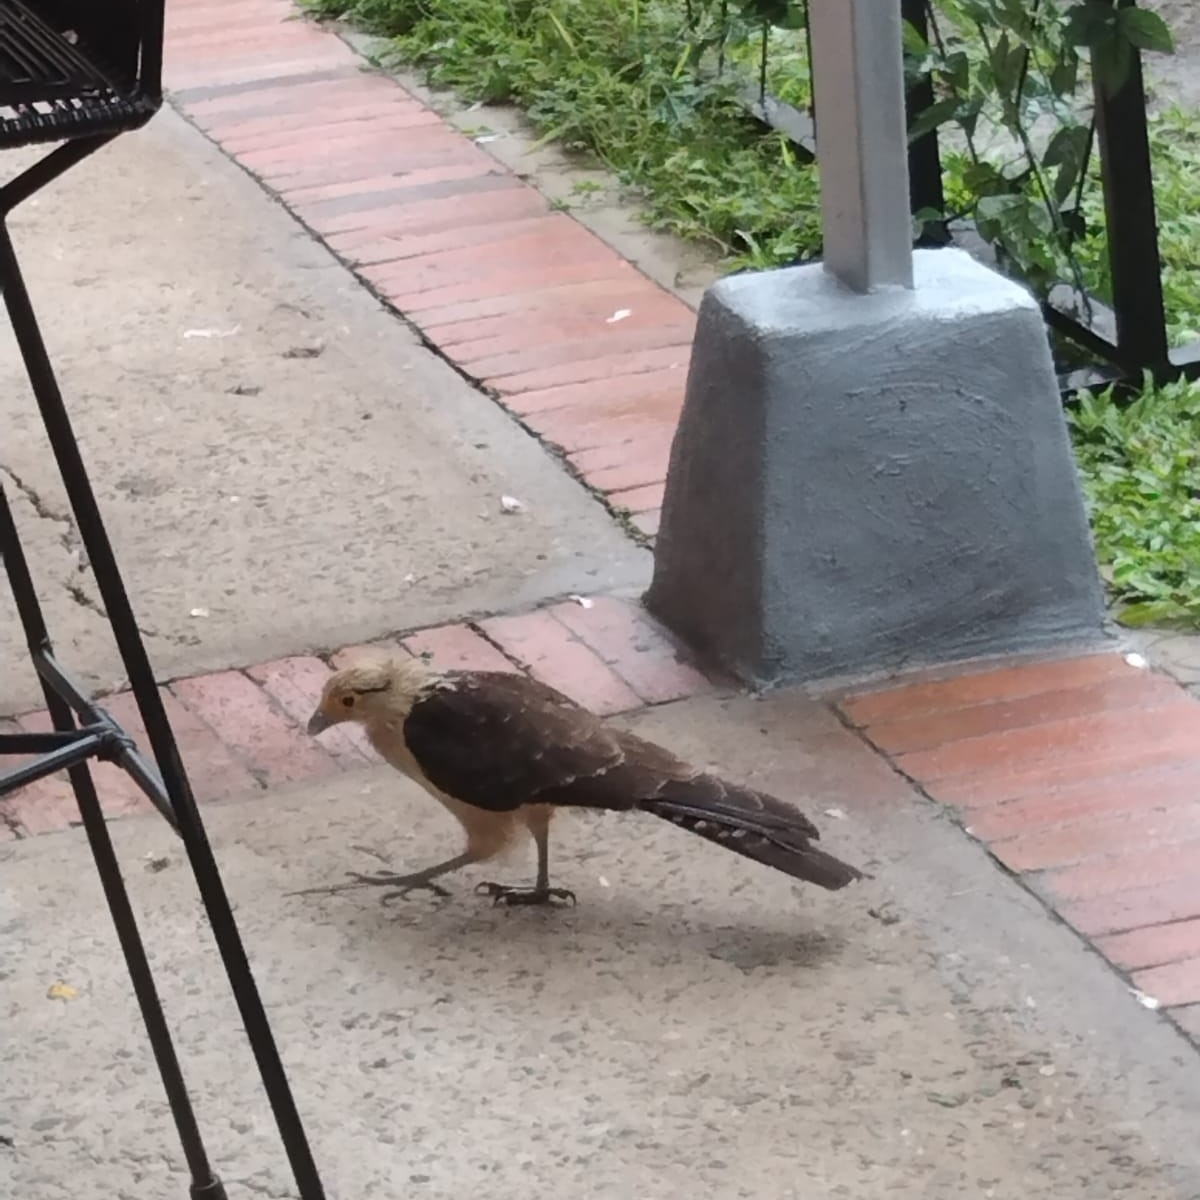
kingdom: Animalia
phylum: Chordata
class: Aves
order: Falconiformes
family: Falconidae
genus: Daptrius
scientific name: Daptrius
